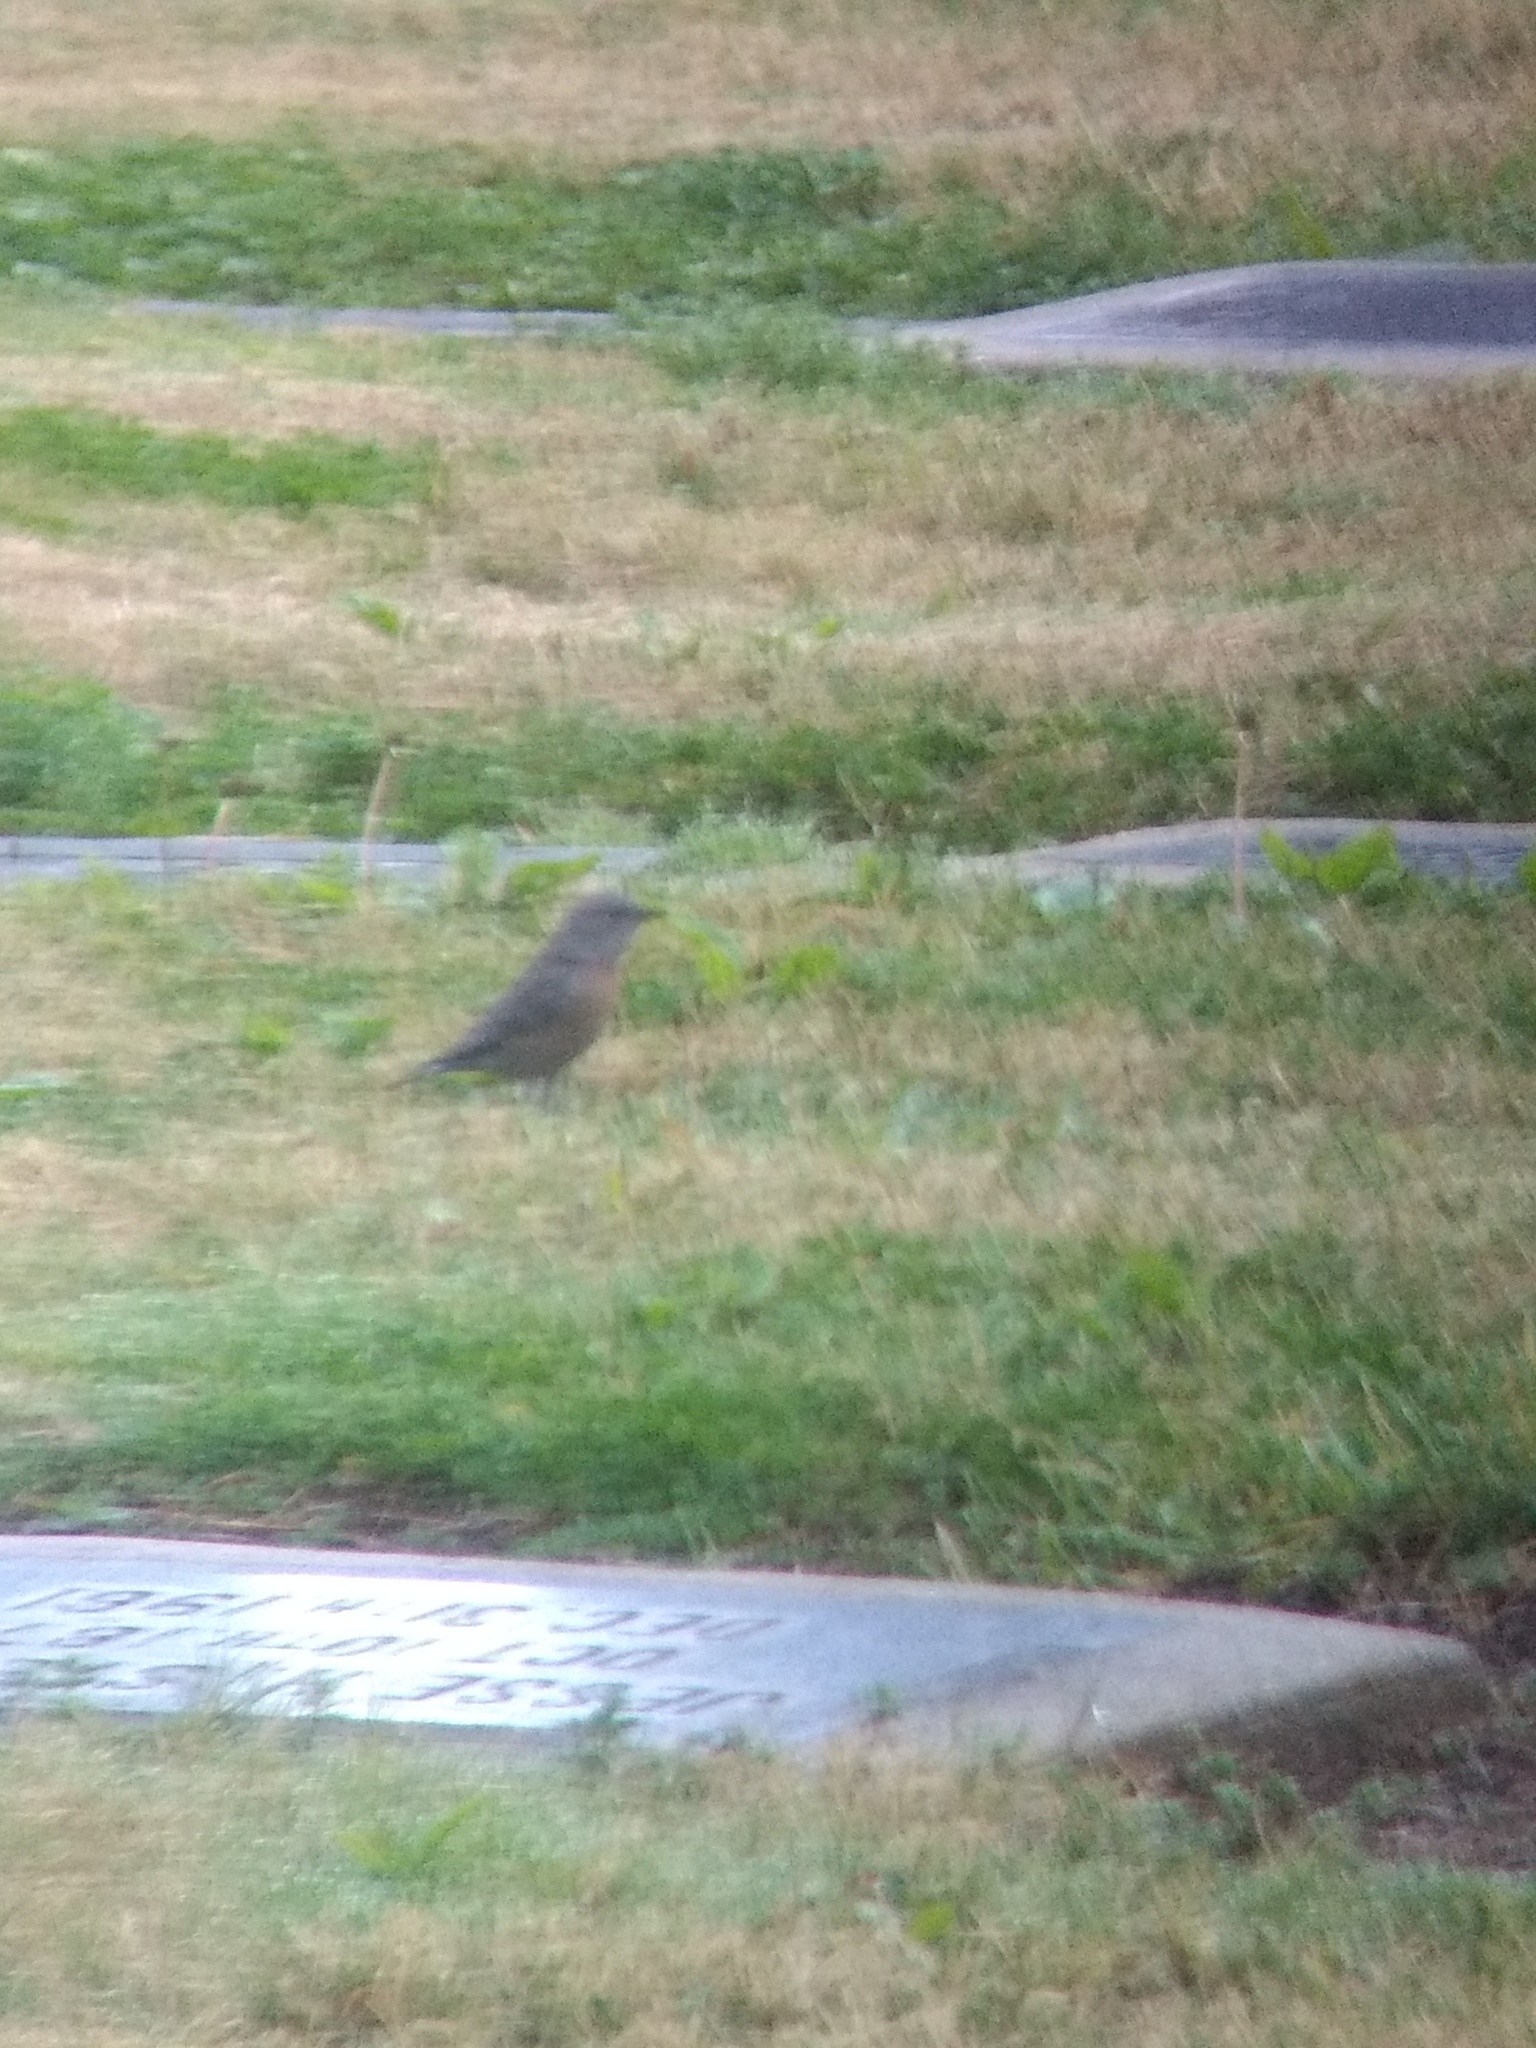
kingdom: Animalia
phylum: Chordata
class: Aves
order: Passeriformes
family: Turdidae
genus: Sialia
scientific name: Sialia mexicana
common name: Western bluebird
